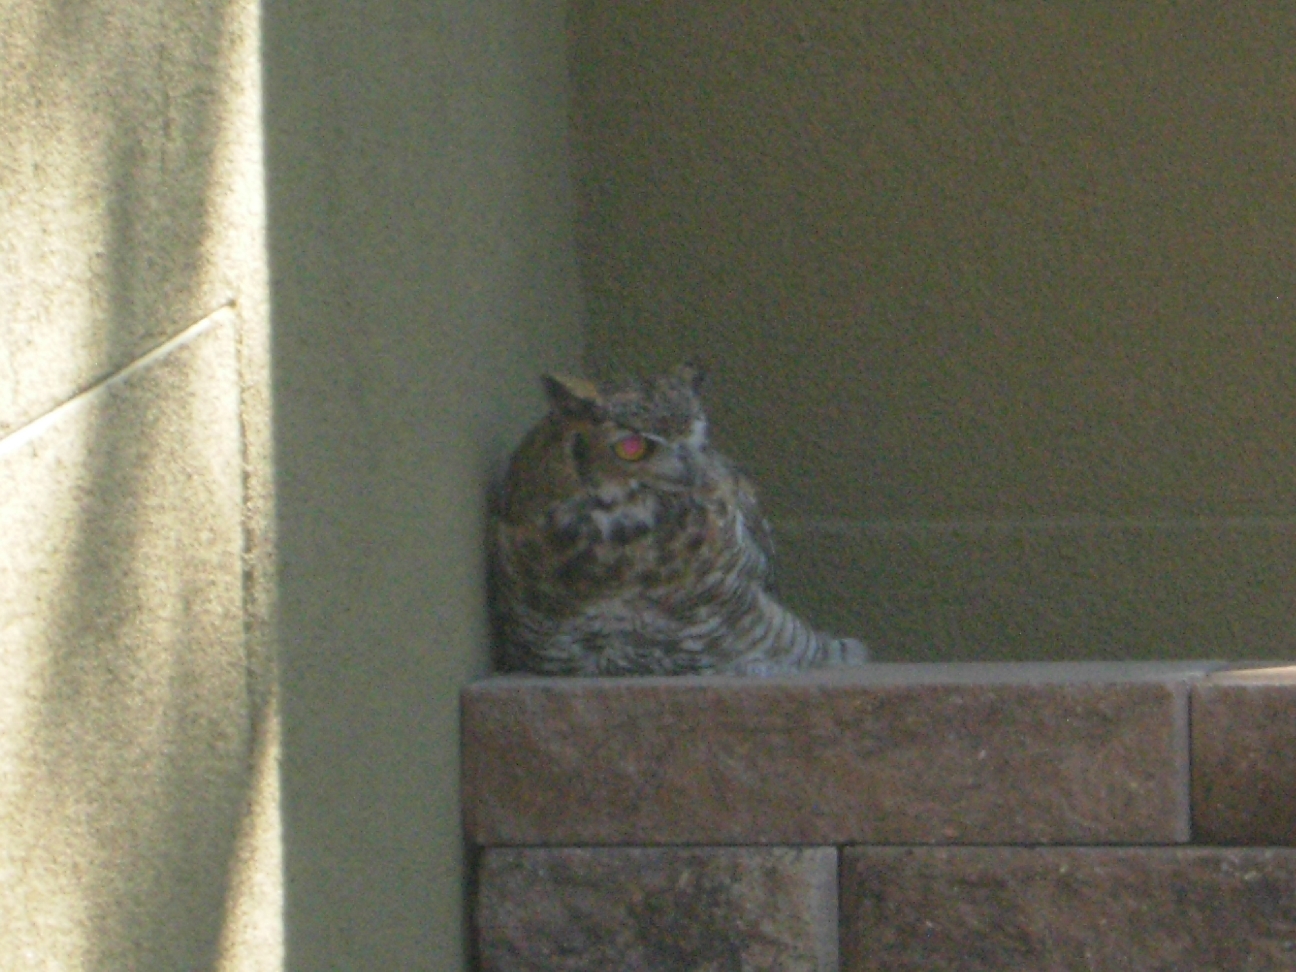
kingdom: Animalia
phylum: Chordata
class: Aves
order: Strigiformes
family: Strigidae
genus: Bubo
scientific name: Bubo virginianus
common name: Great horned owl
